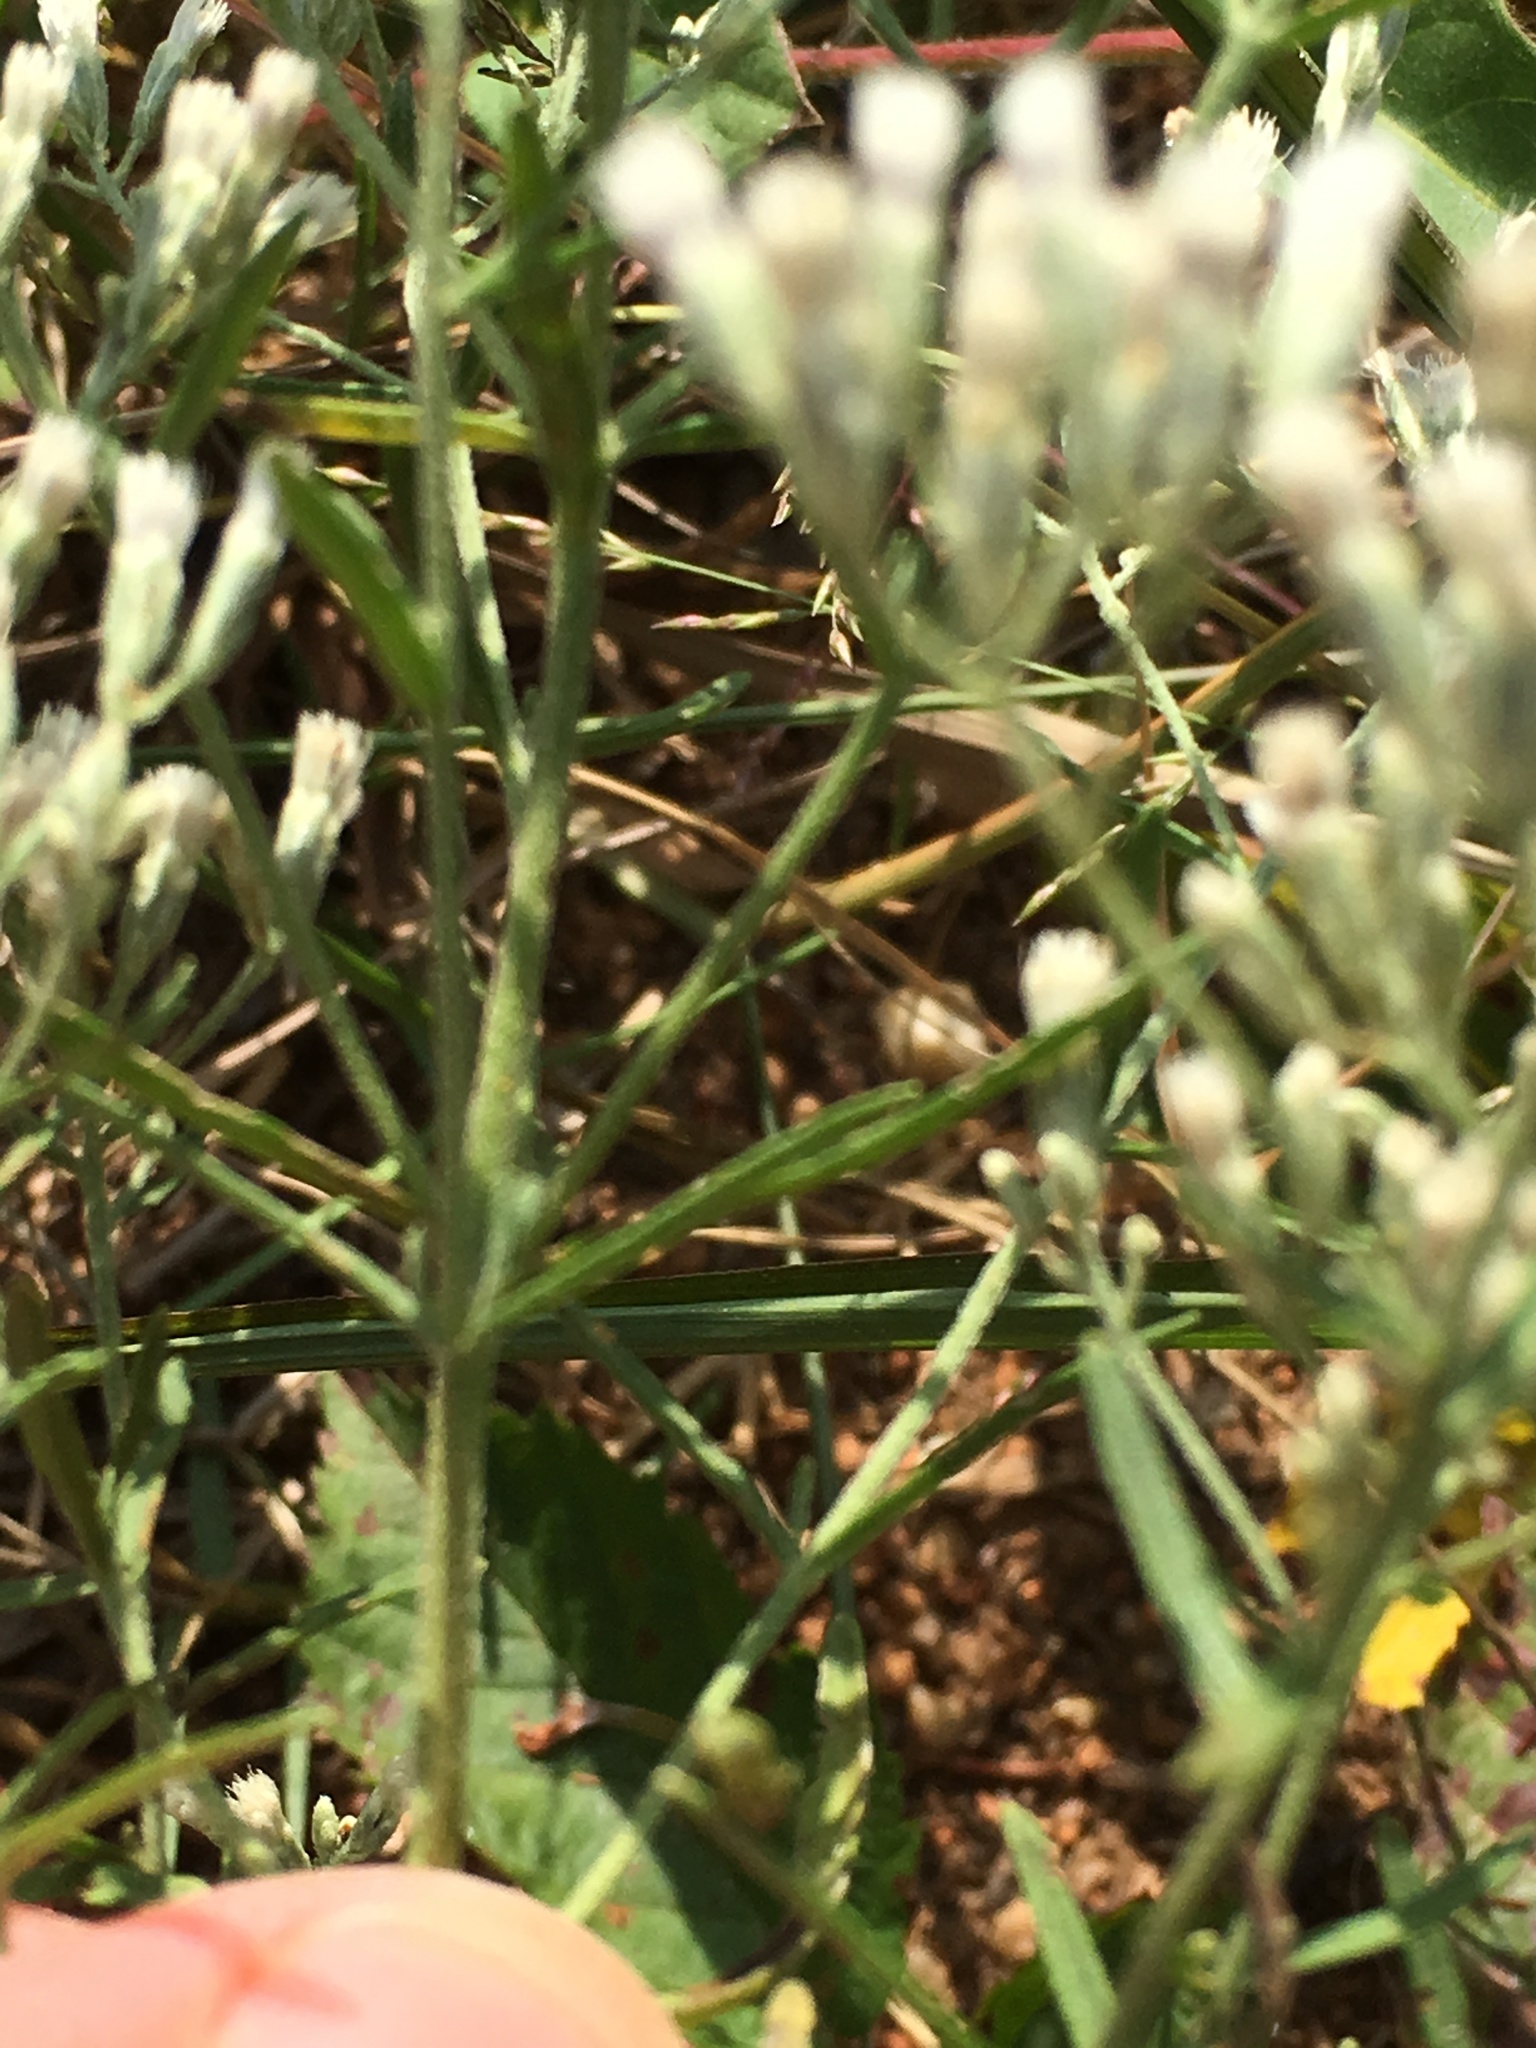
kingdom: Plantae
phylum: Tracheophyta
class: Magnoliopsida
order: Asterales
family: Asteraceae
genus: Eupatorium
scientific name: Eupatorium hyssopifolium
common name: Hyssop-leaf thoroughwort
